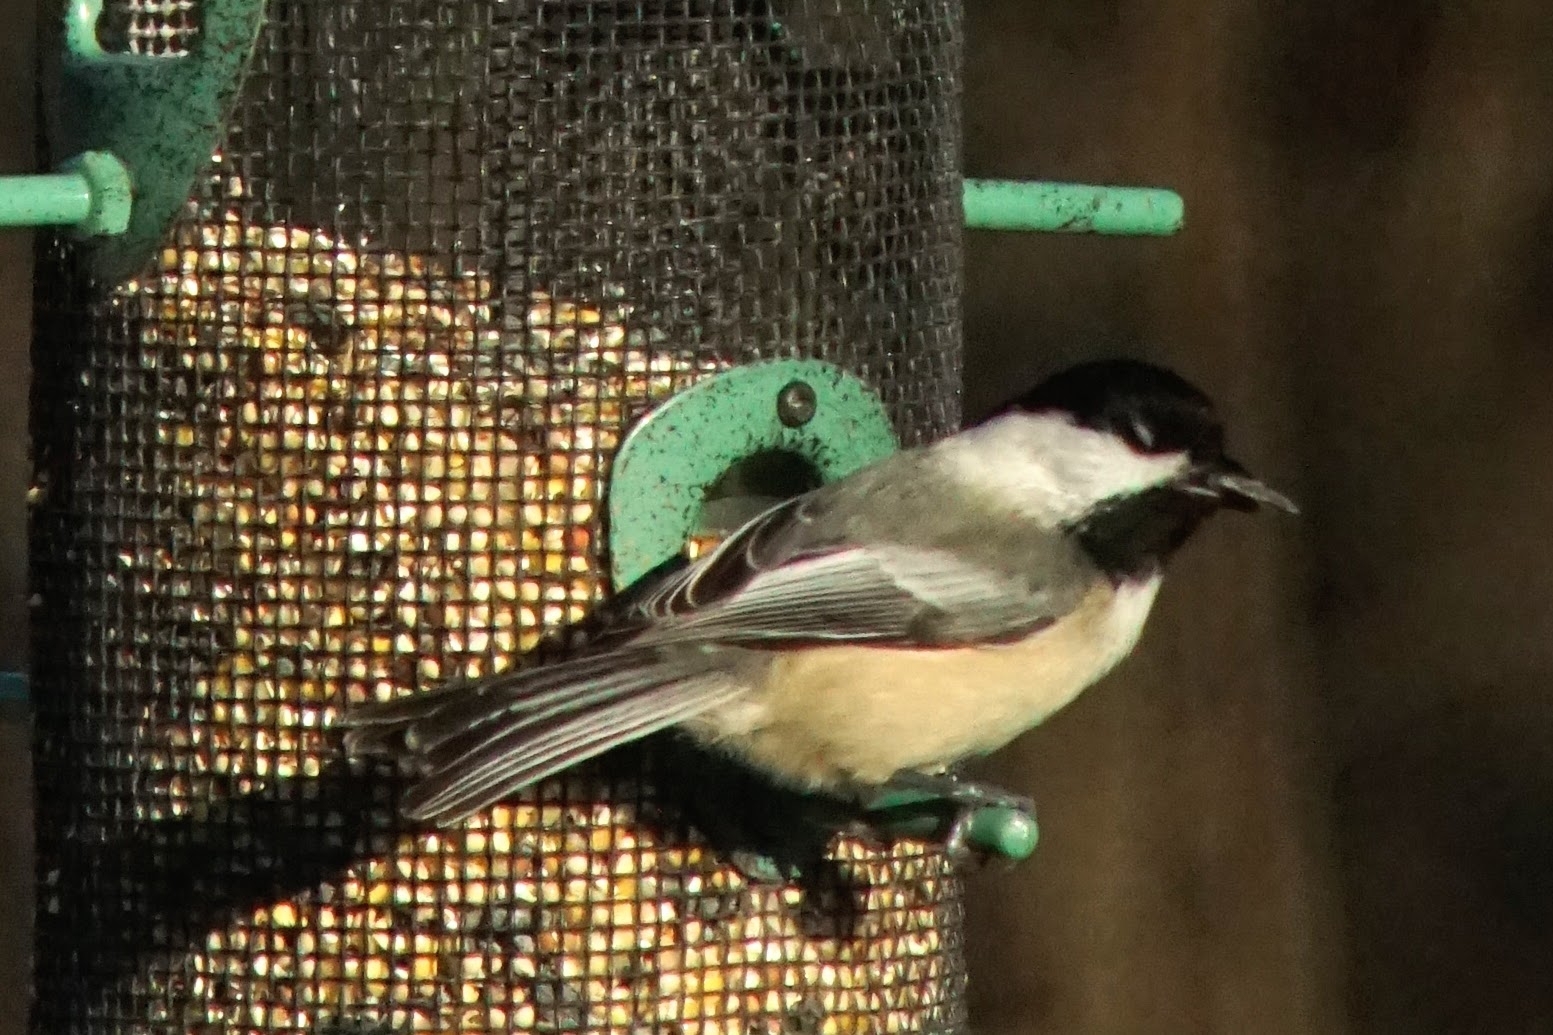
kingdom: Animalia
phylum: Chordata
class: Aves
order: Passeriformes
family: Paridae
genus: Poecile
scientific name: Poecile atricapillus
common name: Black-capped chickadee
